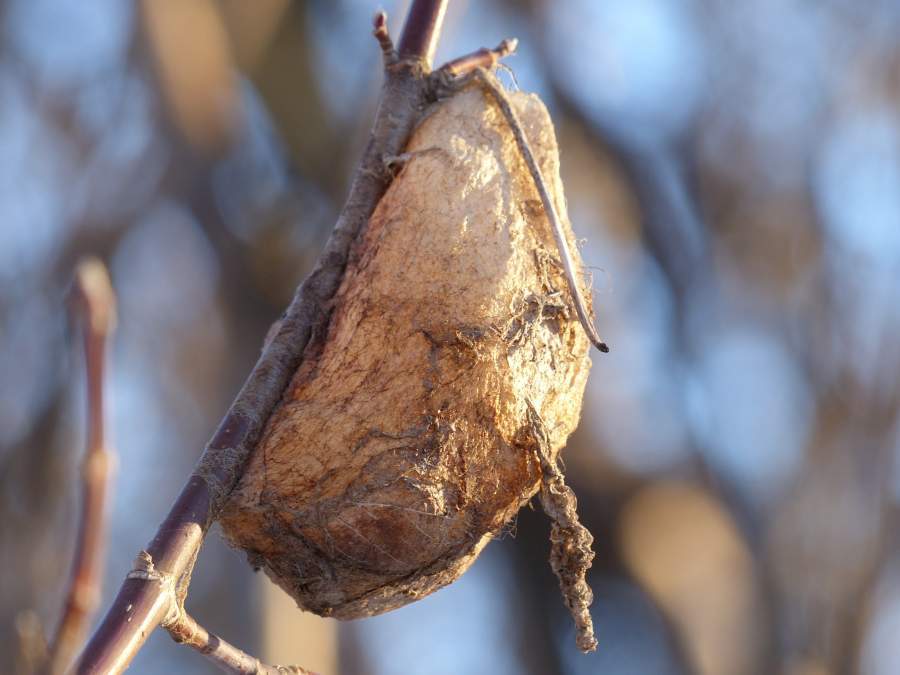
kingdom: Animalia
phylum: Arthropoda
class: Insecta
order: Lepidoptera
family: Saturniidae
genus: Hyalophora
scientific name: Hyalophora cecropia
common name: Cecropia silkmoth
